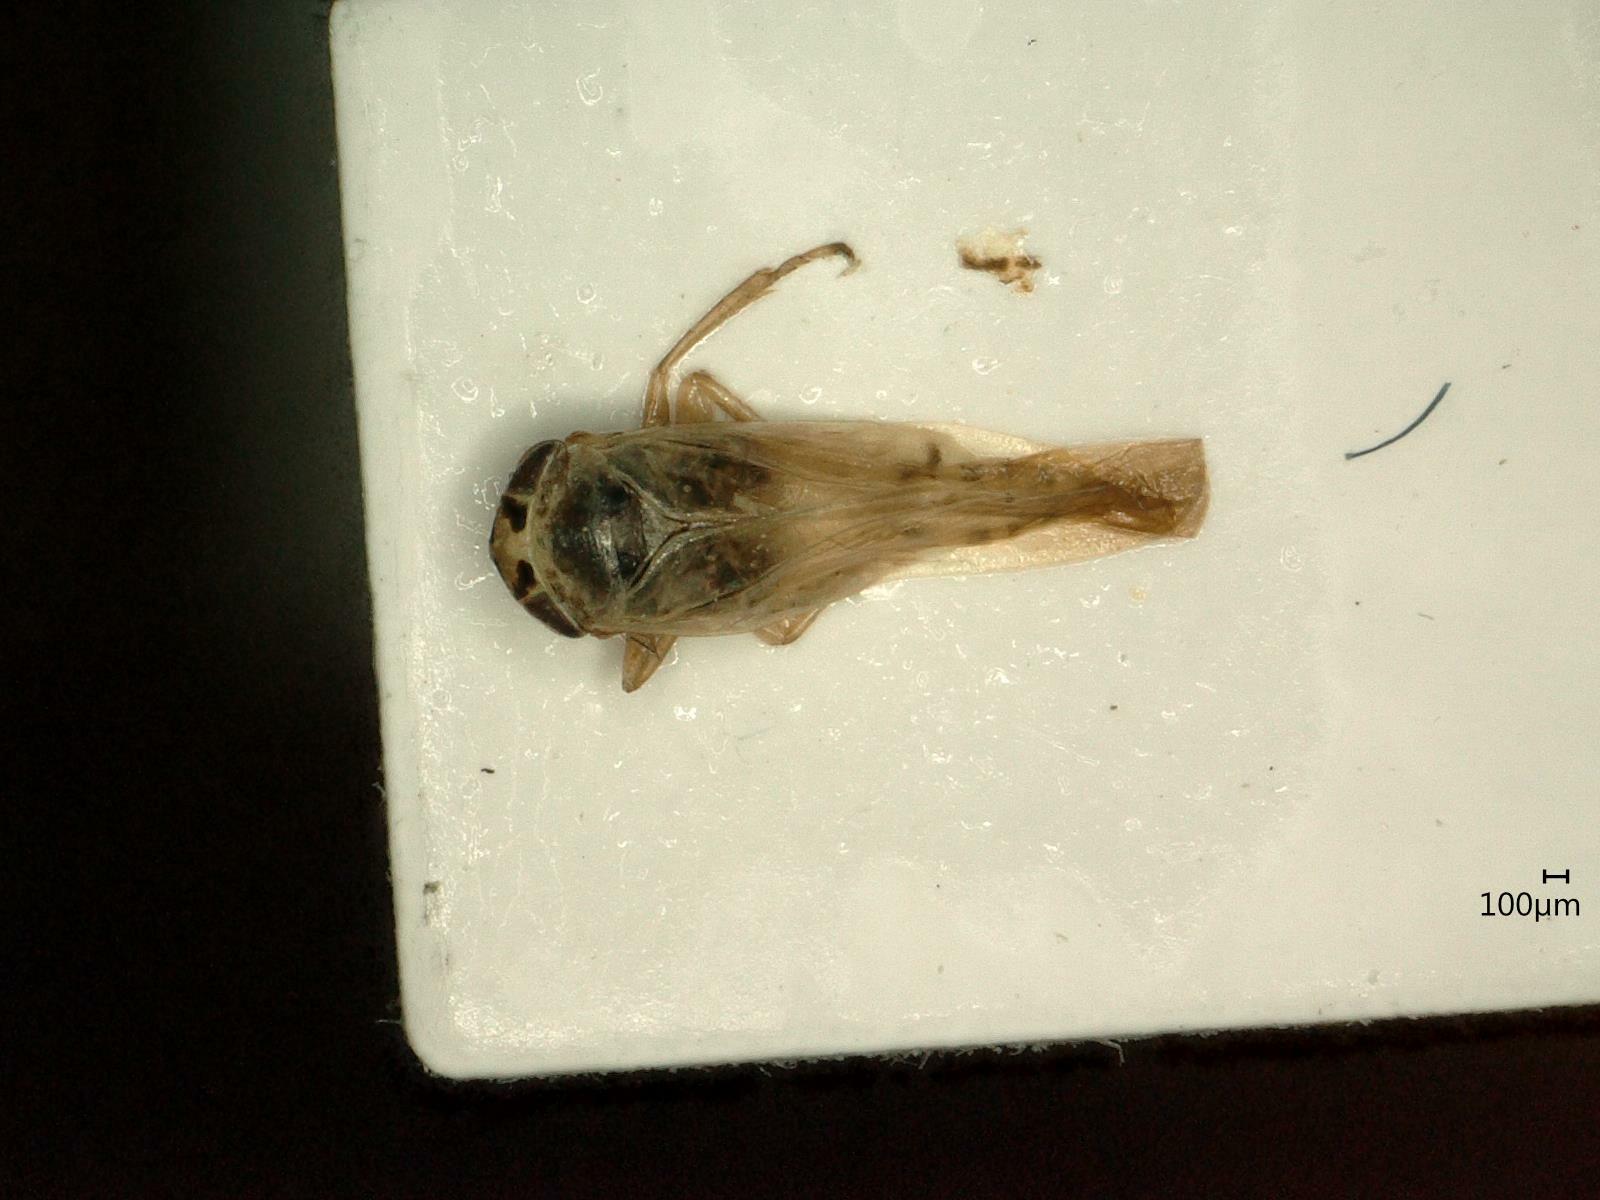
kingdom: Animalia
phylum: Arthropoda
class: Insecta
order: Hemiptera
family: Cicadellidae
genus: Macrosteles
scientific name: Macrosteles laevis
